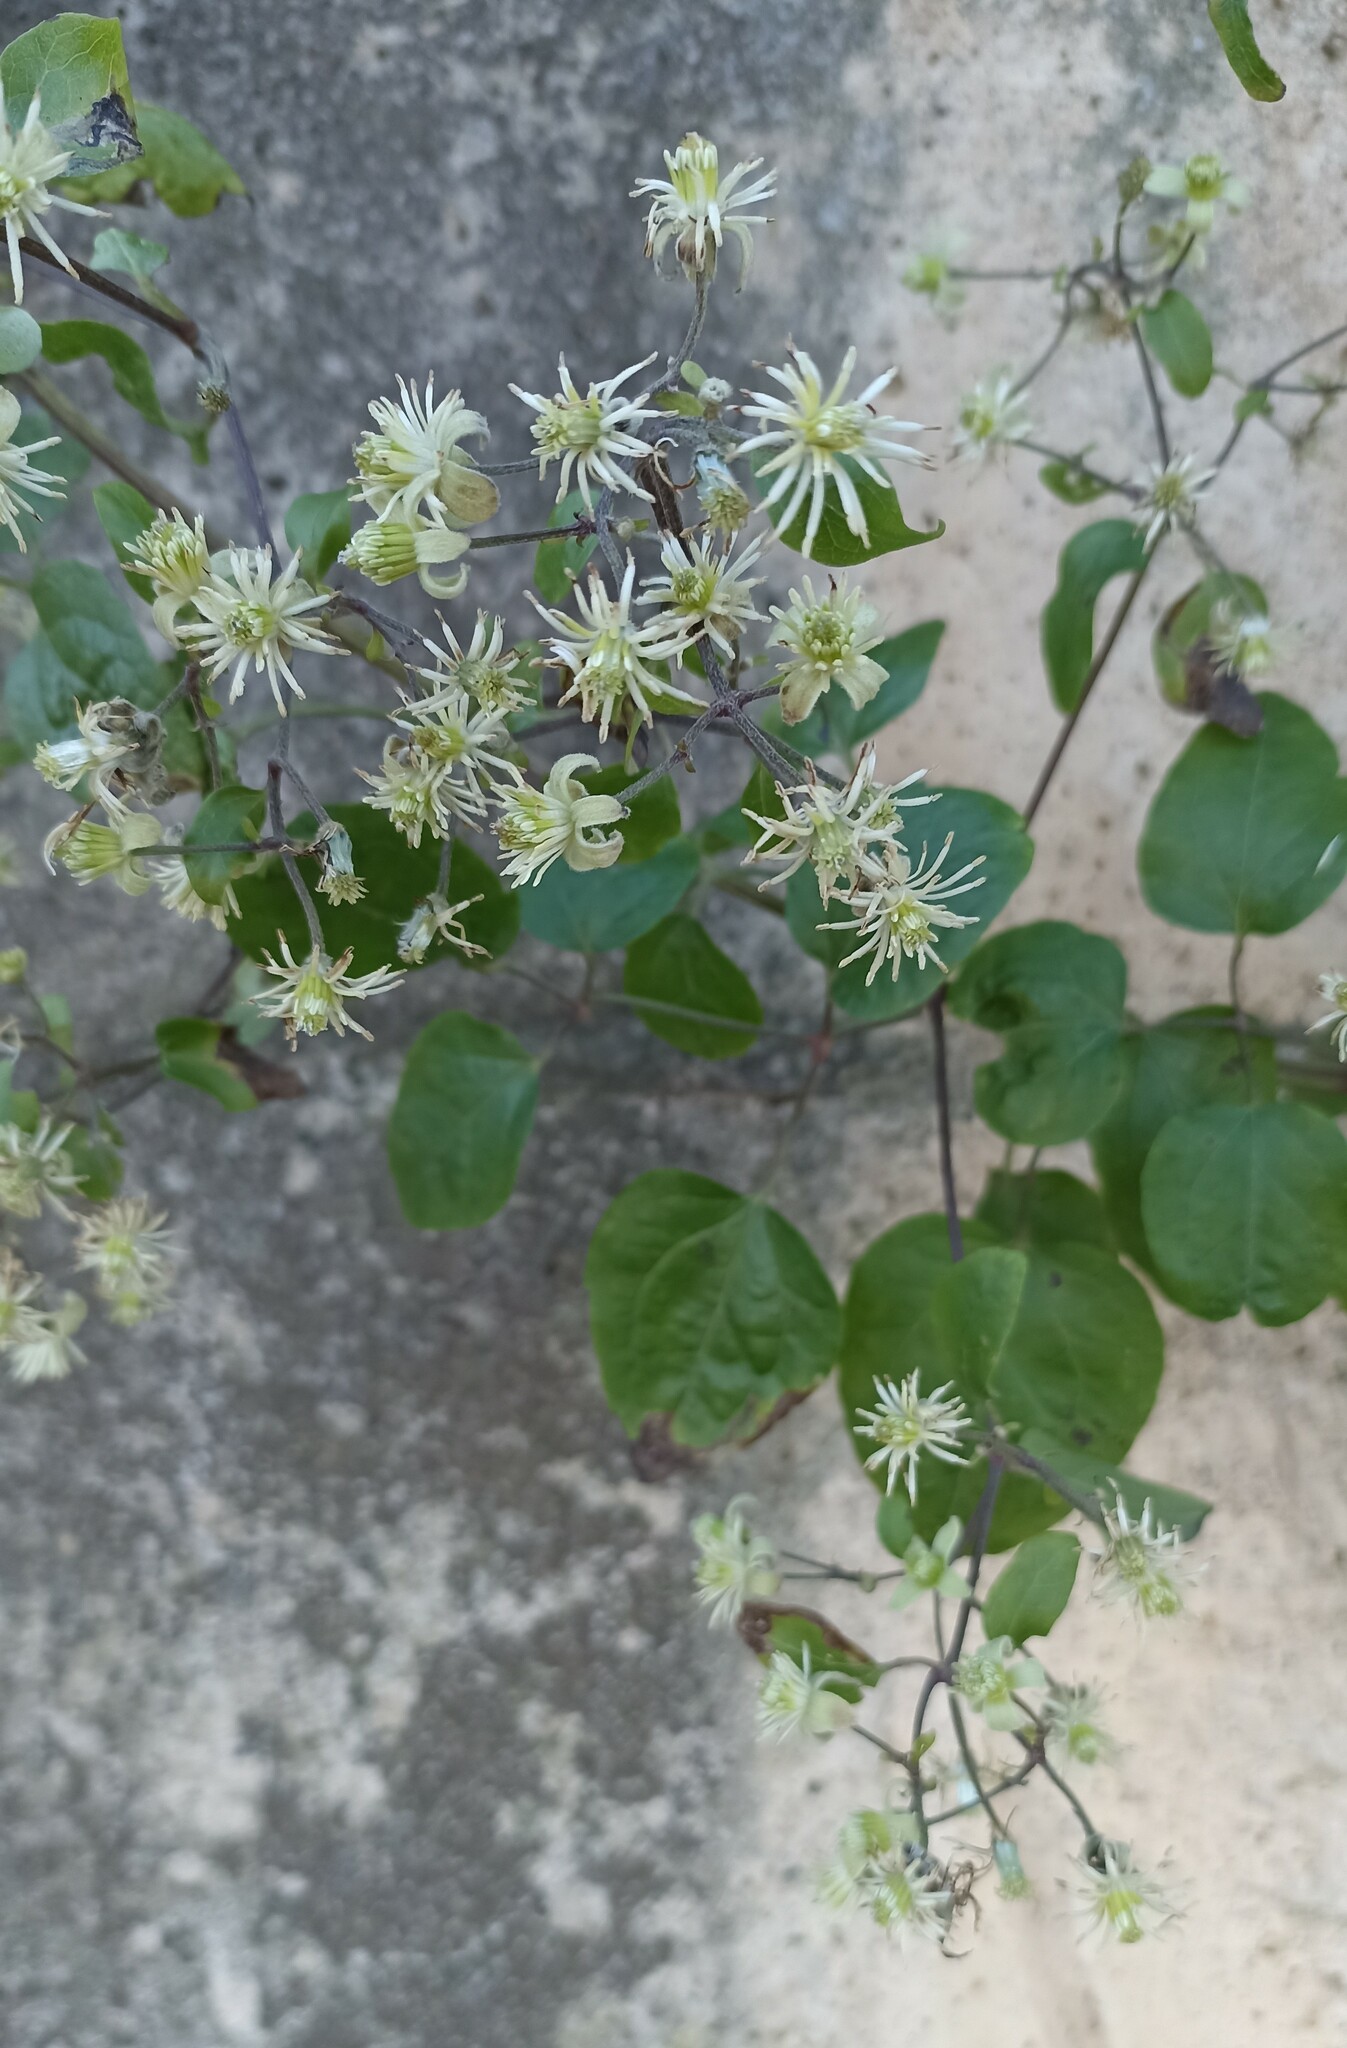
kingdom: Plantae
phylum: Tracheophyta
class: Magnoliopsida
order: Ranunculales
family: Ranunculaceae
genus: Clematis
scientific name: Clematis vitalba
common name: Evergreen clematis
